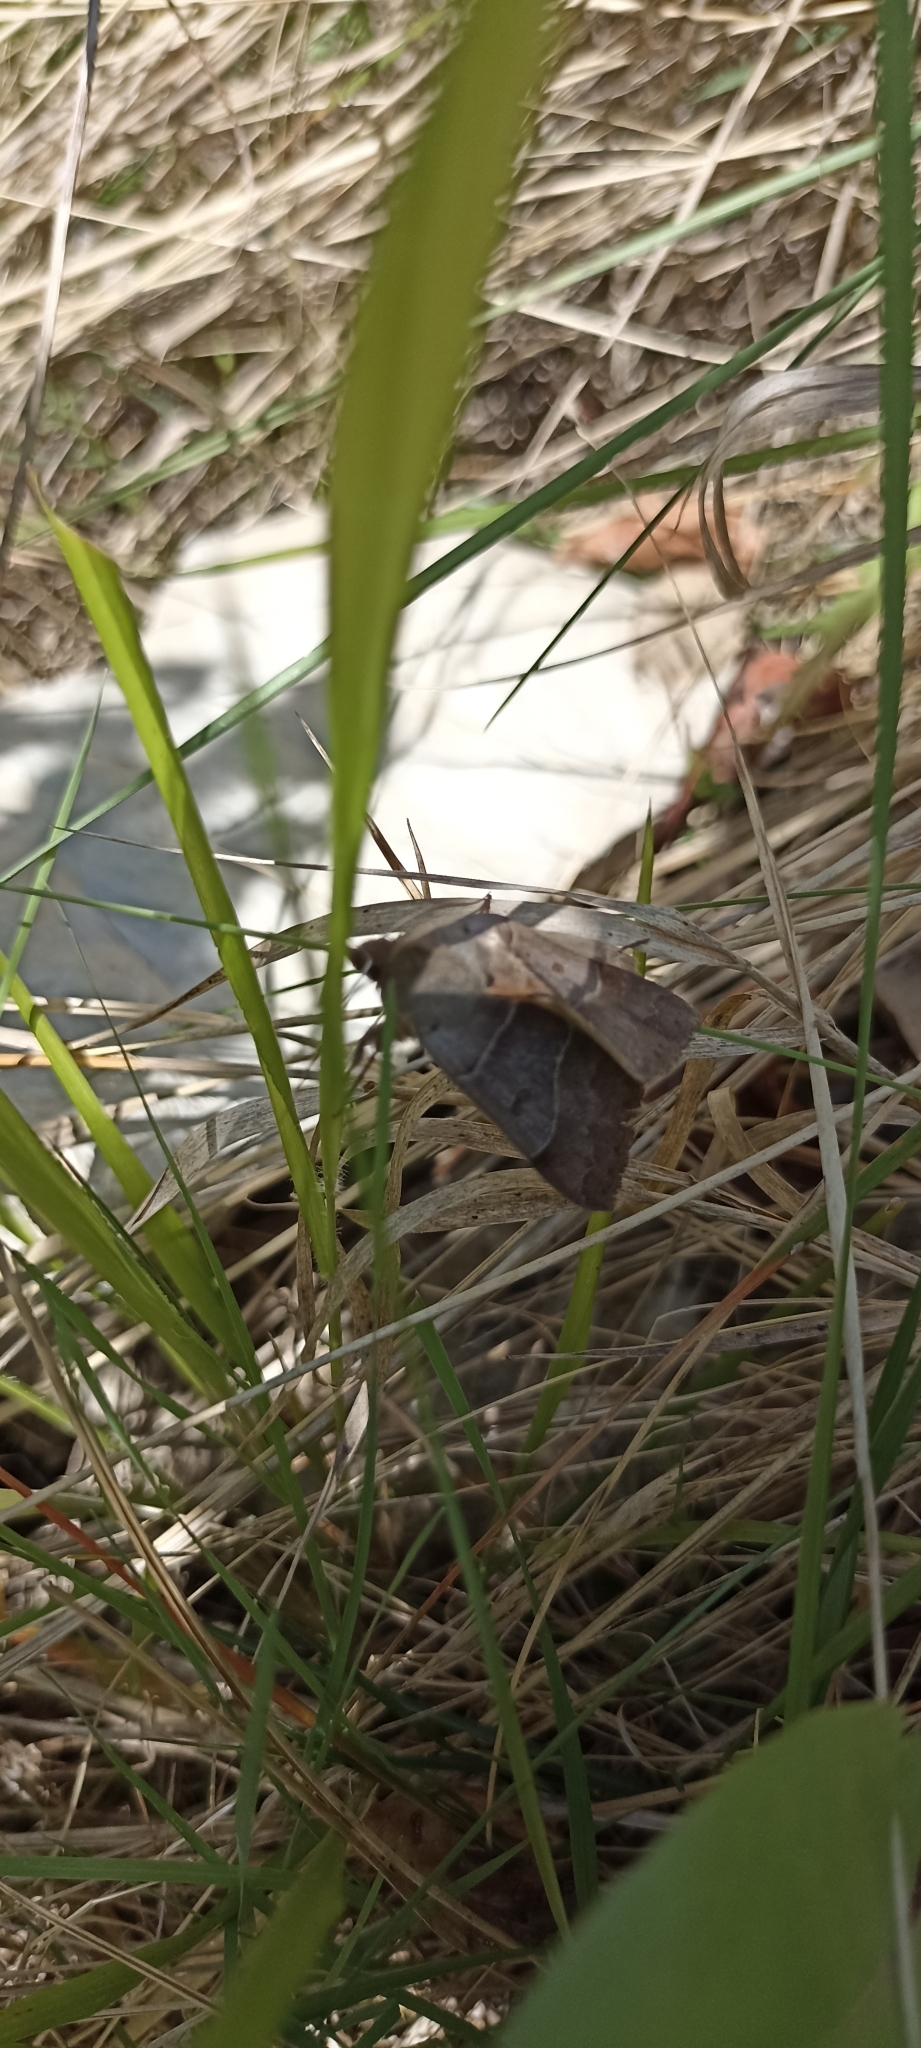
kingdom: Animalia
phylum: Arthropoda
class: Insecta
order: Lepidoptera
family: Erebidae
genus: Minucia
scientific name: Minucia lunaris
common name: Lunar double-stripe
